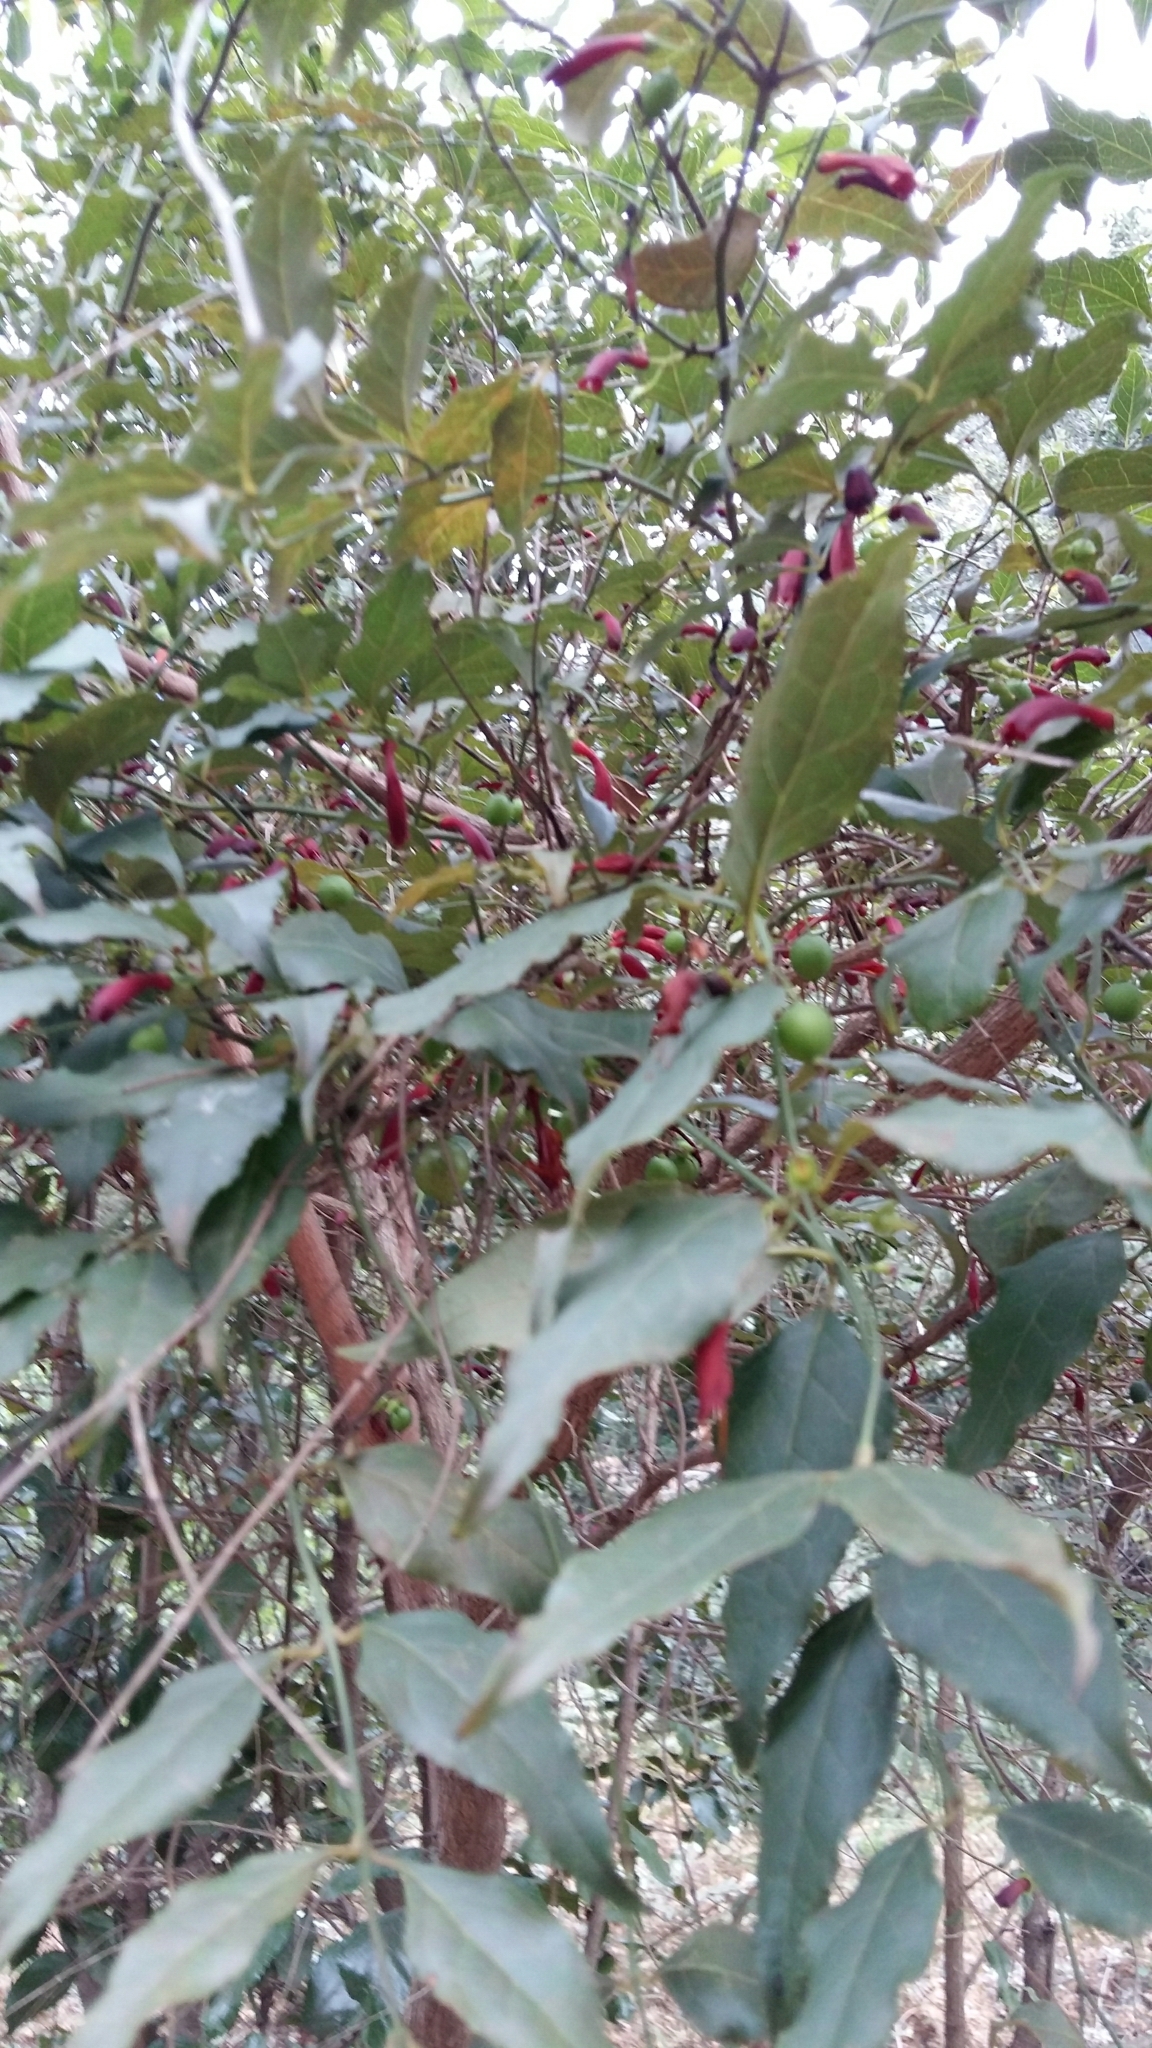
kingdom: Plantae
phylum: Tracheophyta
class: Magnoliopsida
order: Lamiales
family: Stilbaceae
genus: Halleria
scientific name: Halleria lucida
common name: Tree fuschia
